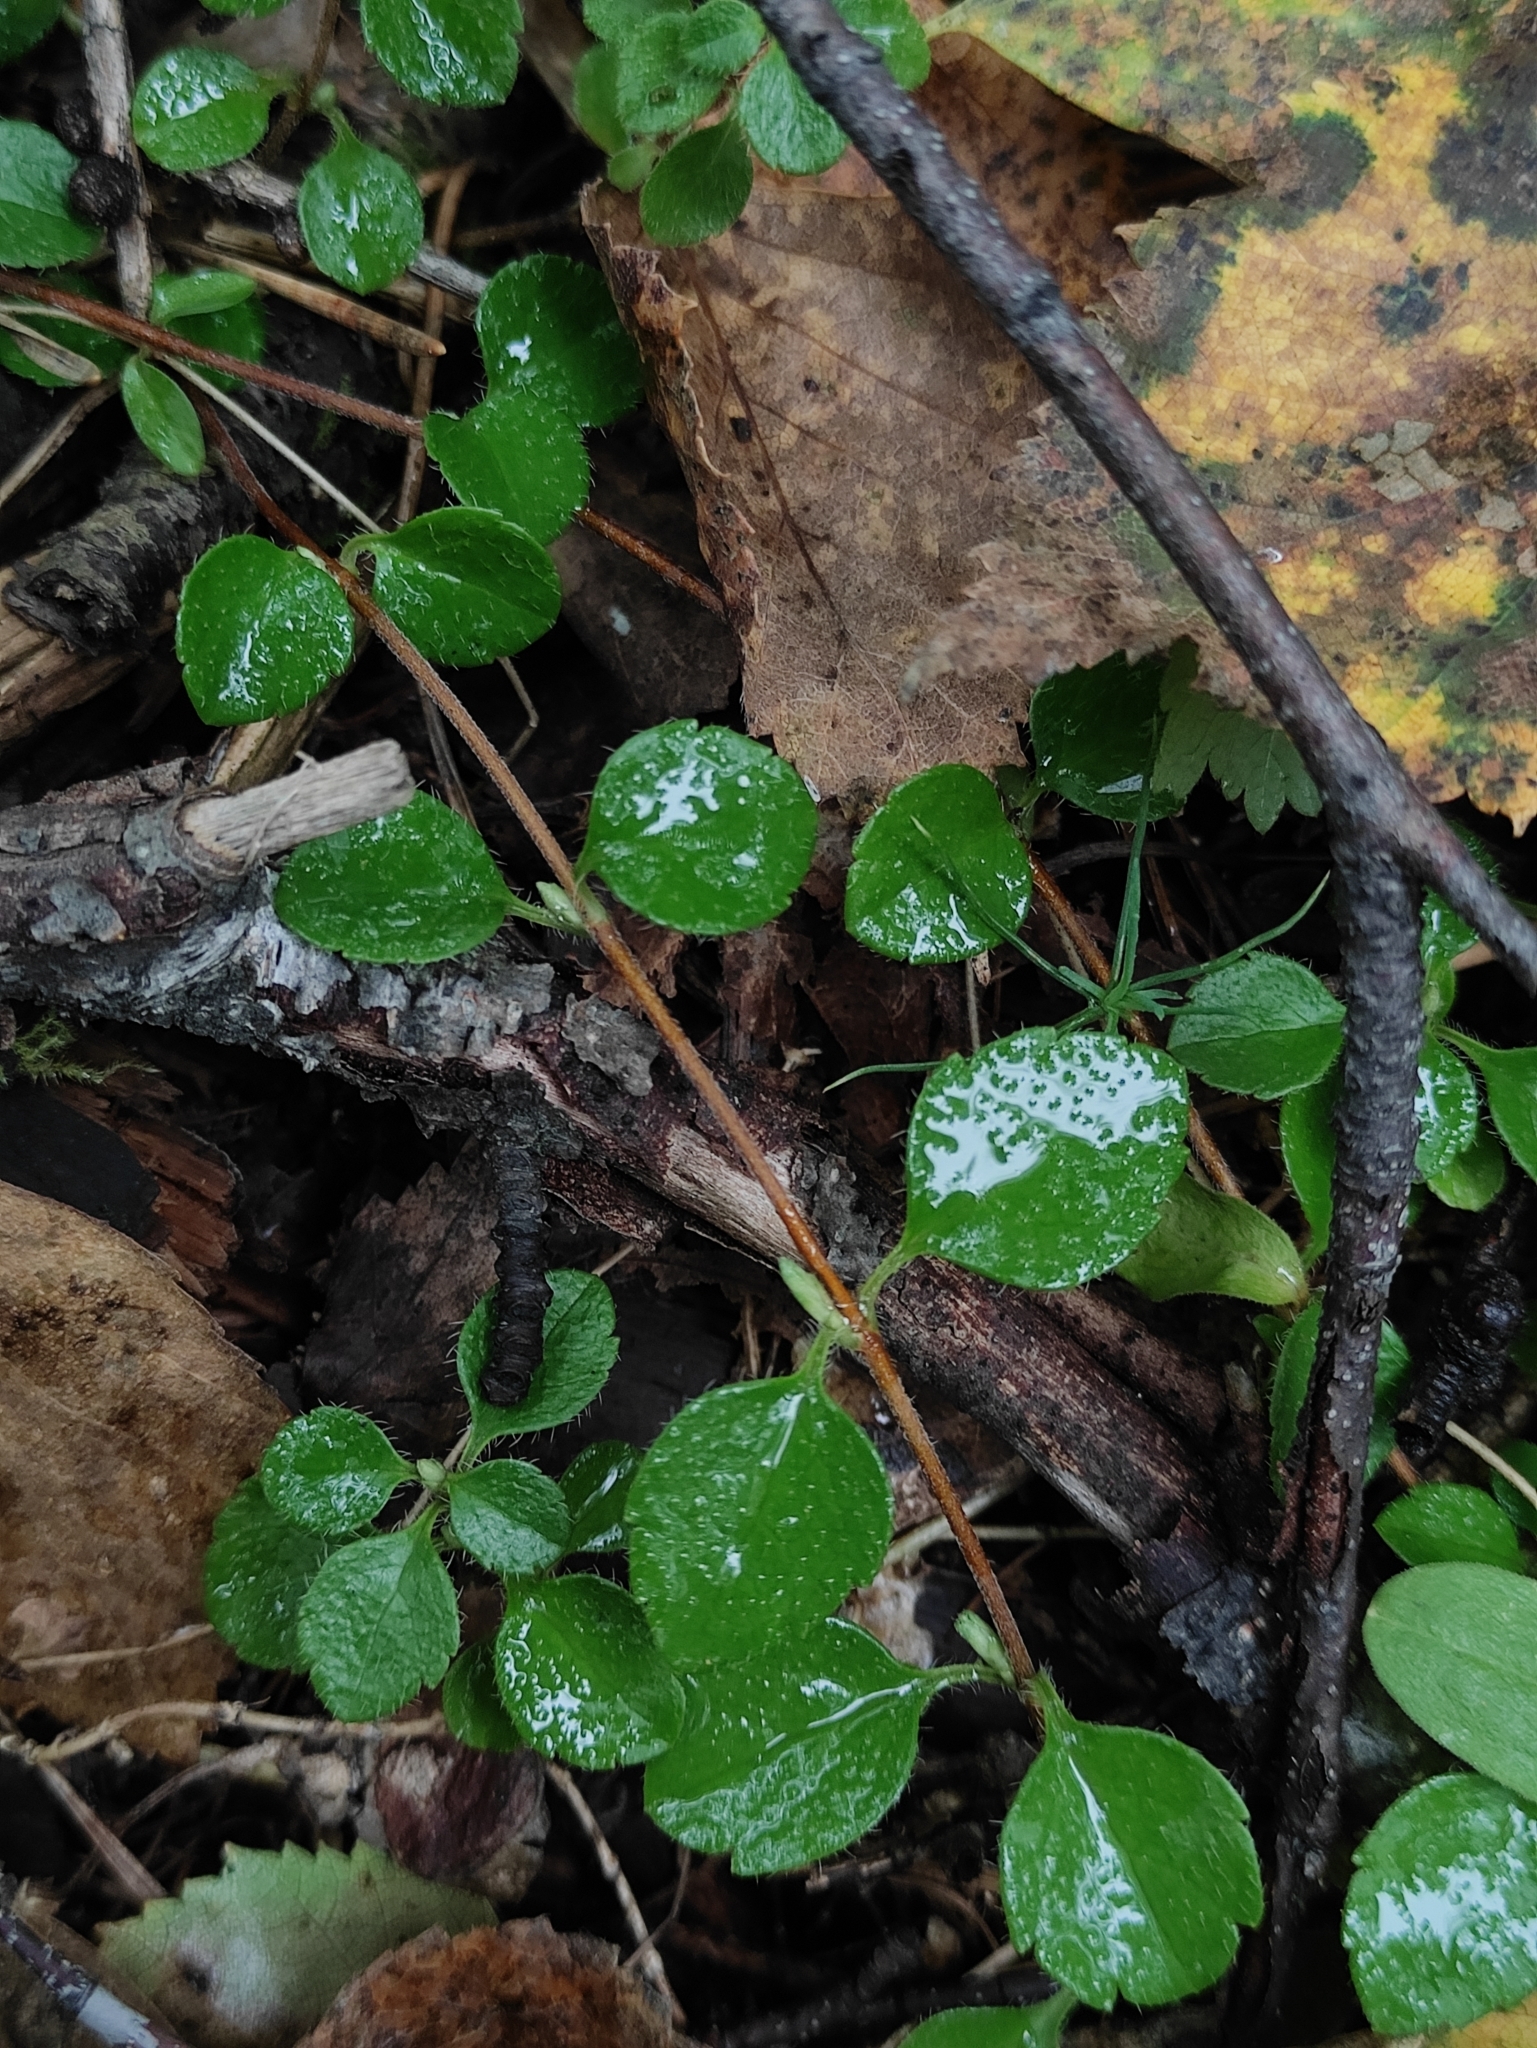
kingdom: Plantae
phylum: Tracheophyta
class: Magnoliopsida
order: Dipsacales
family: Caprifoliaceae
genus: Linnaea
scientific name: Linnaea borealis
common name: Twinflower
